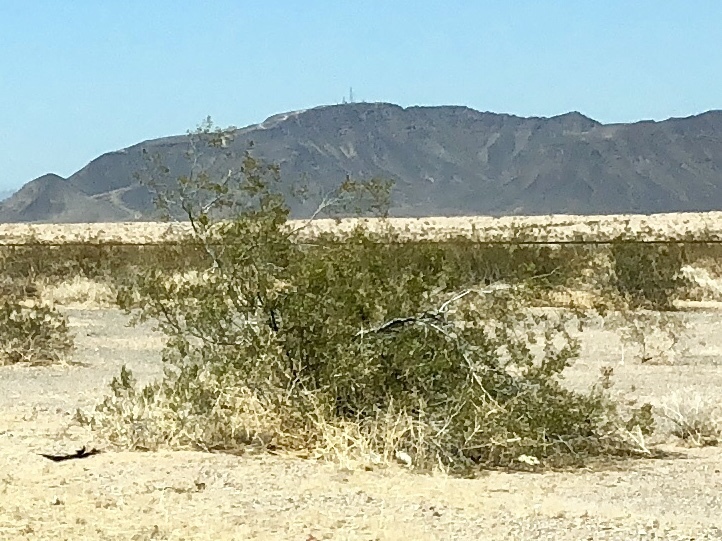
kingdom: Plantae
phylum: Tracheophyta
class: Magnoliopsida
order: Zygophyllales
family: Zygophyllaceae
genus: Larrea
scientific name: Larrea tridentata
